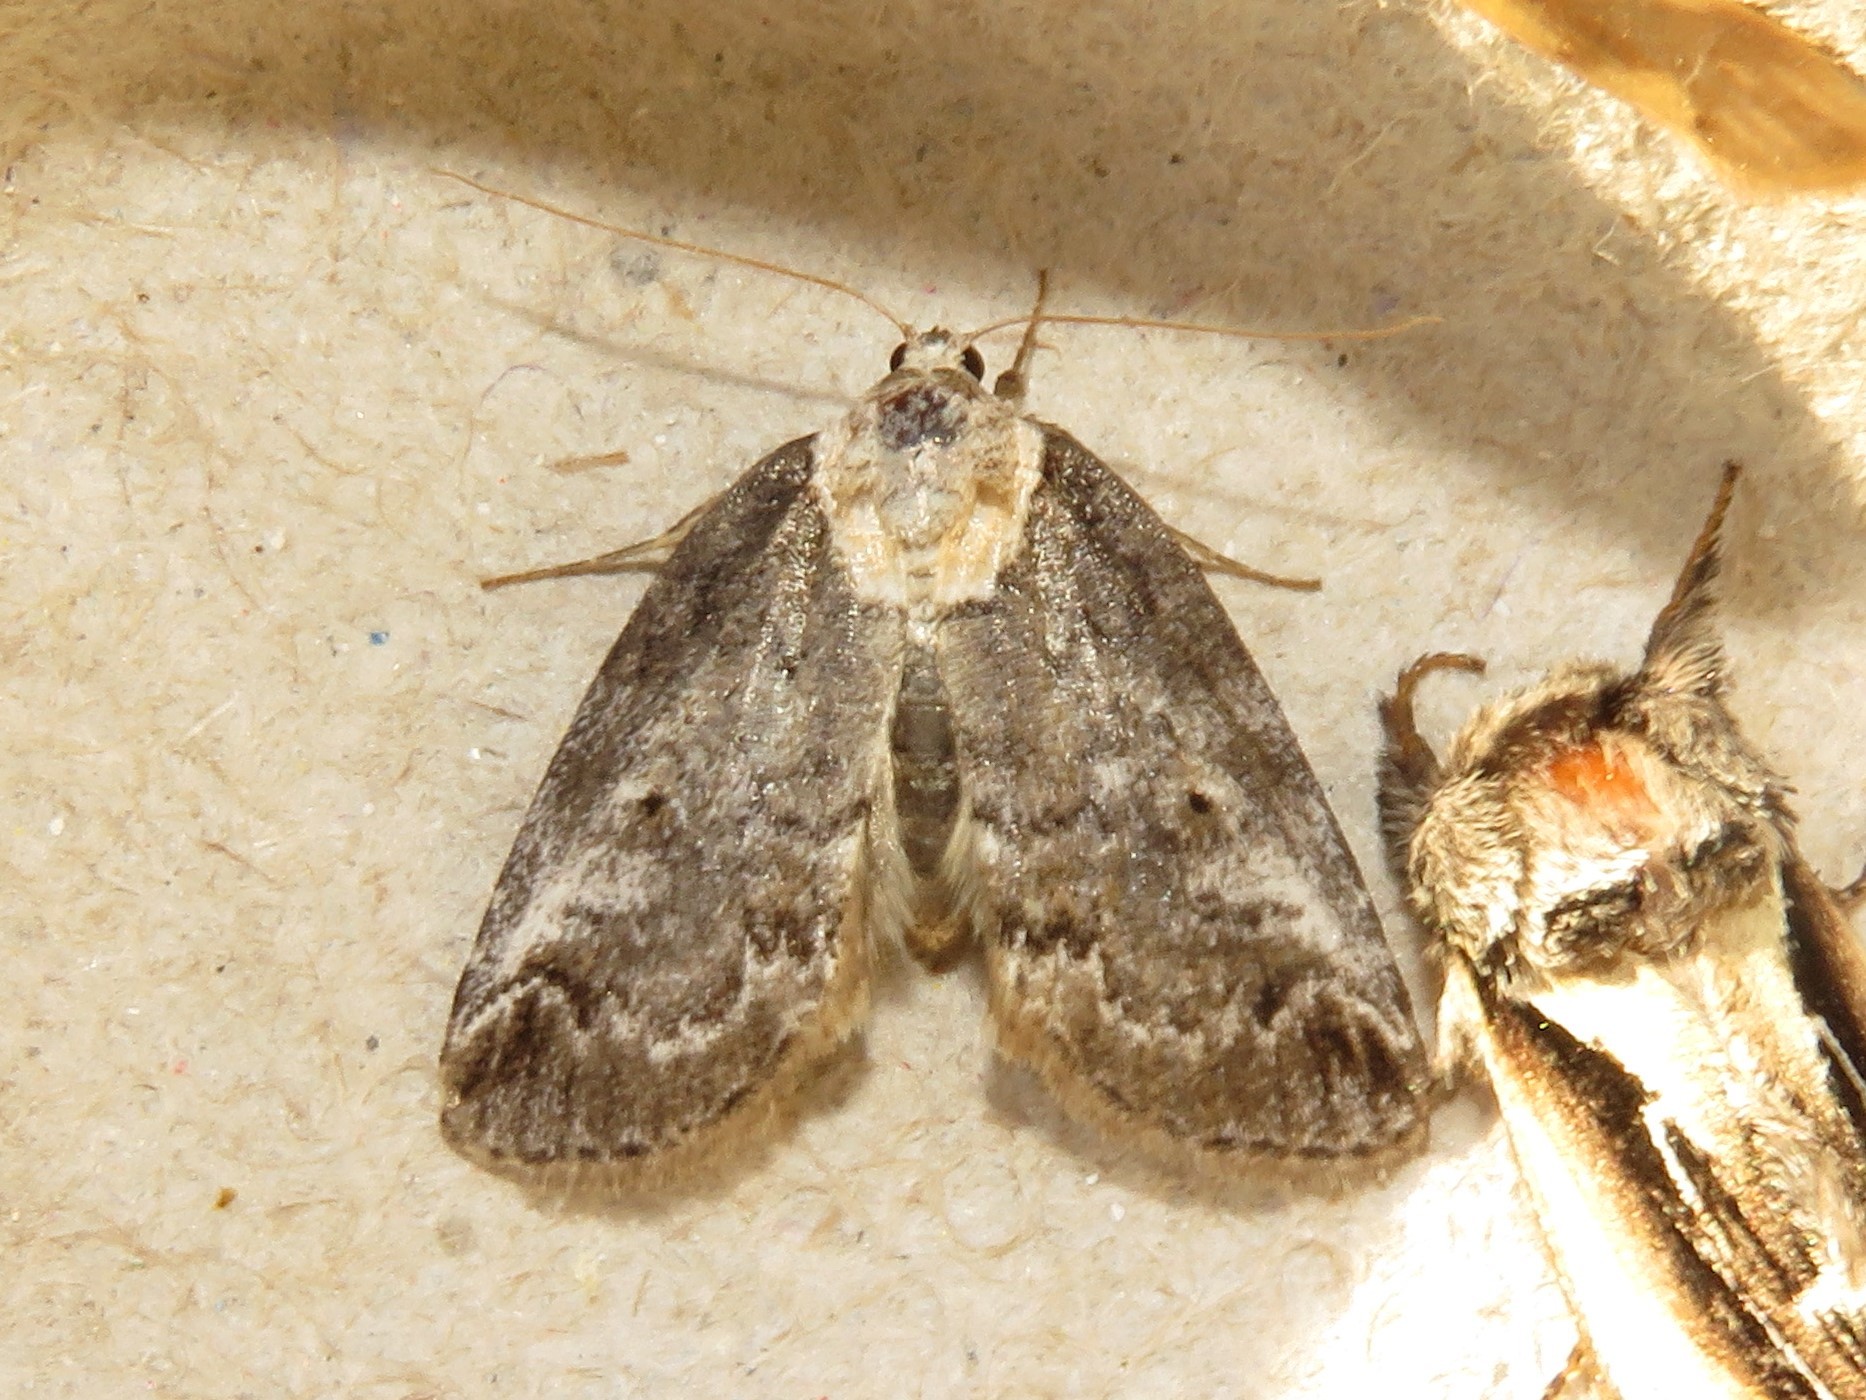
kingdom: Animalia
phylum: Arthropoda
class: Insecta
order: Lepidoptera
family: Nolidae
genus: Baileya
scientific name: Baileya ophthalmica
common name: Eyed baileya moth
